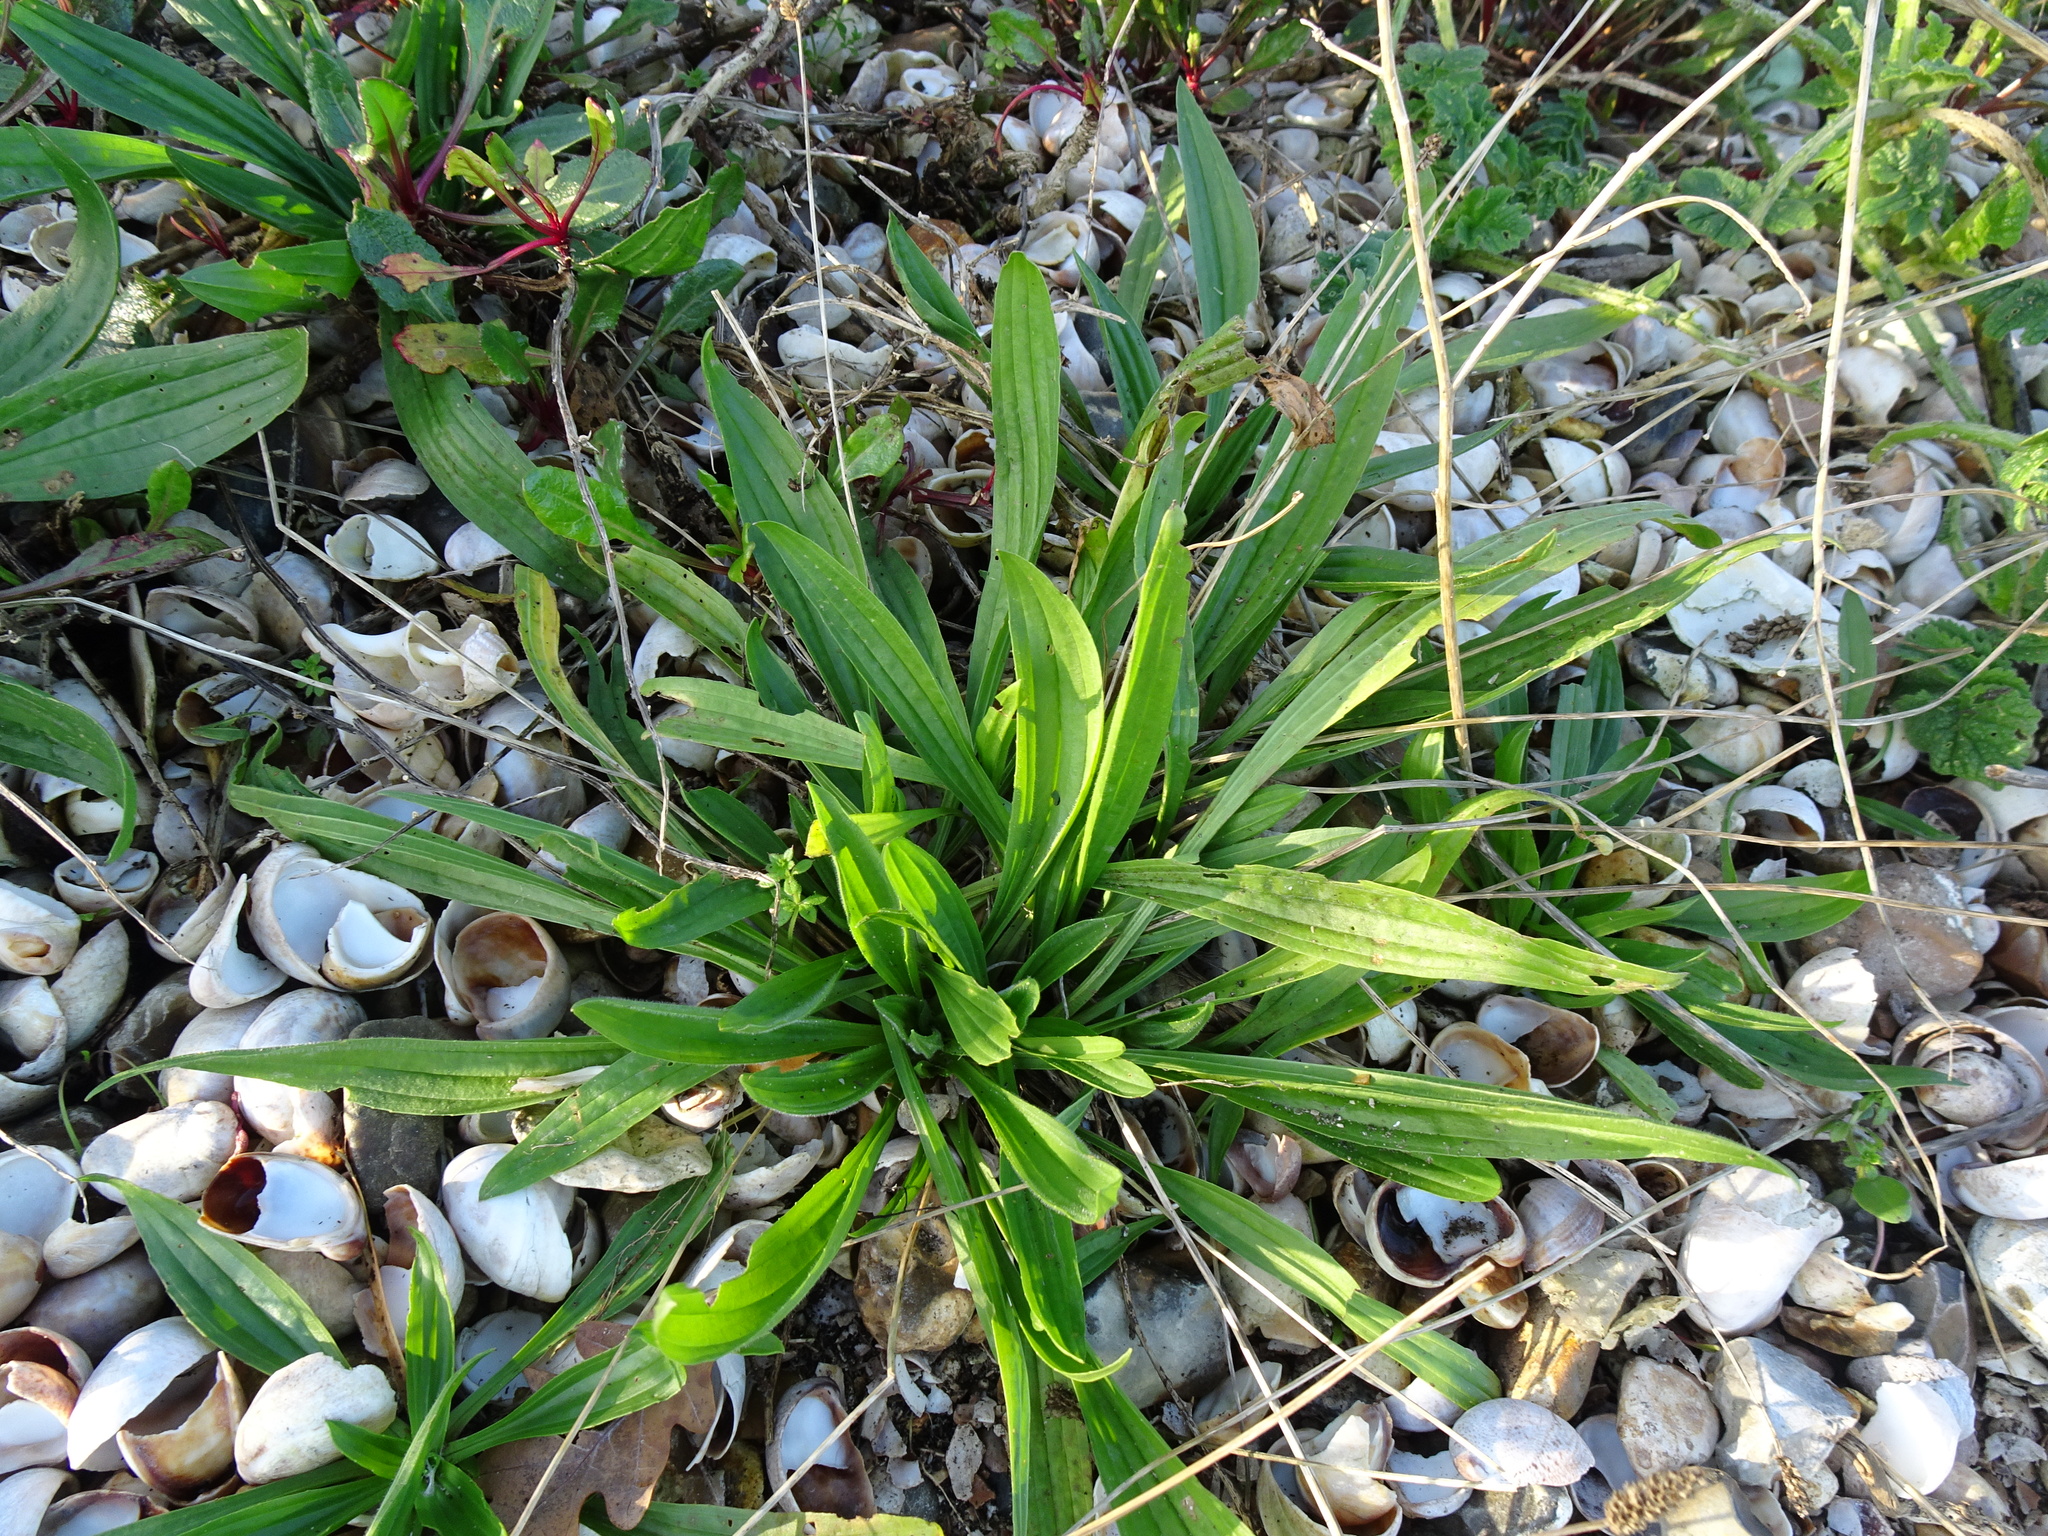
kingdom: Plantae
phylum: Tracheophyta
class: Magnoliopsida
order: Lamiales
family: Plantaginaceae
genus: Plantago
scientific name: Plantago lanceolata
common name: Ribwort plantain
